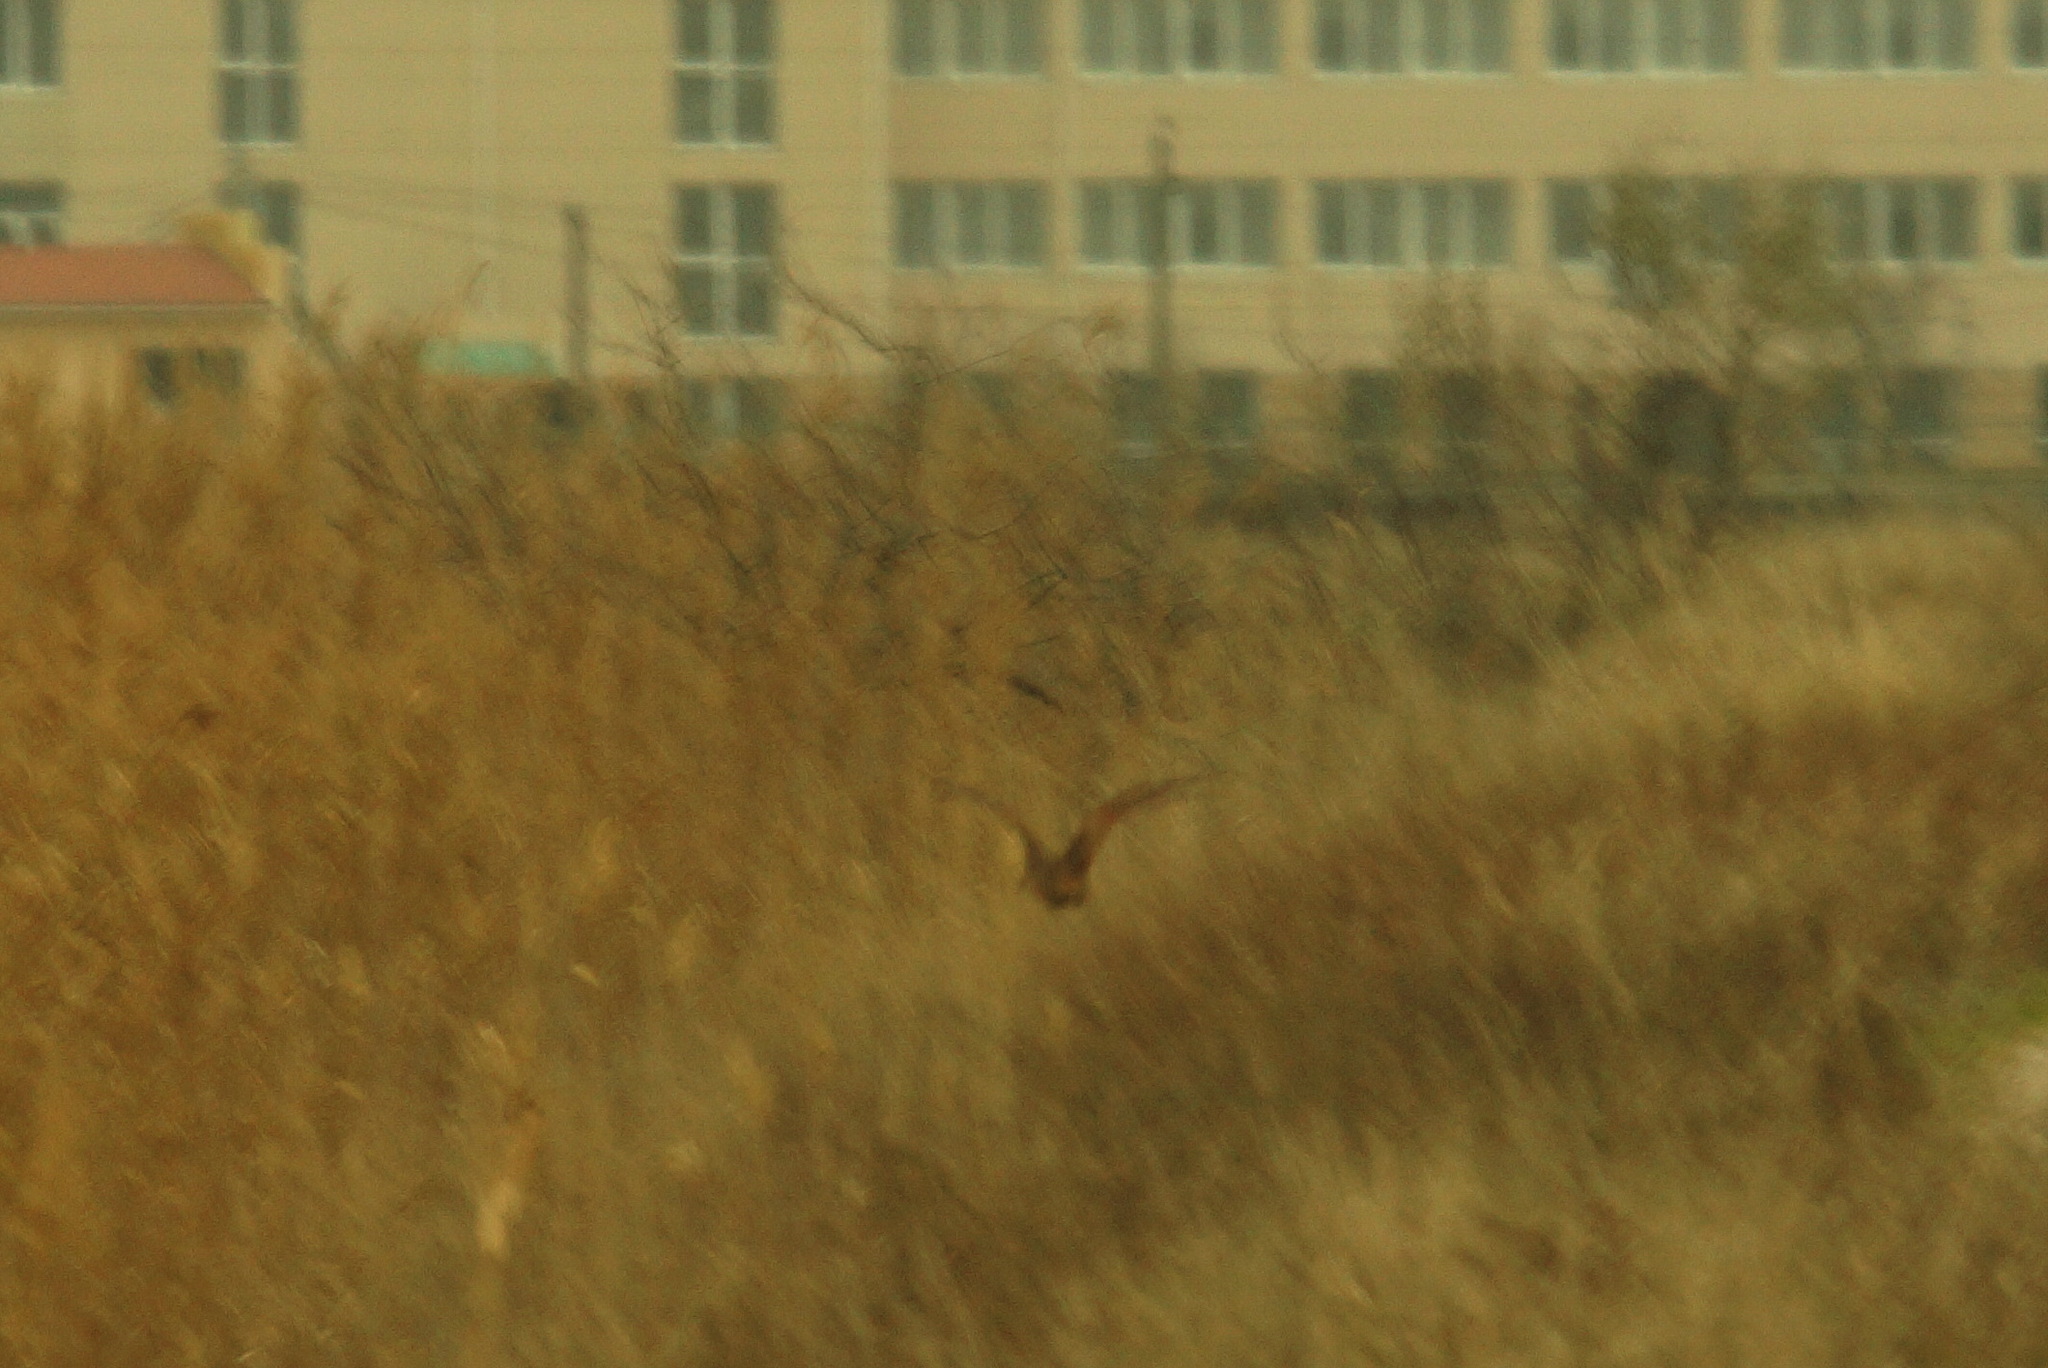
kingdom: Animalia
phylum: Chordata
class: Aves
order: Charadriiformes
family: Scolopacidae
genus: Scolopax
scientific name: Scolopax rusticola
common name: Eurasian woodcock
